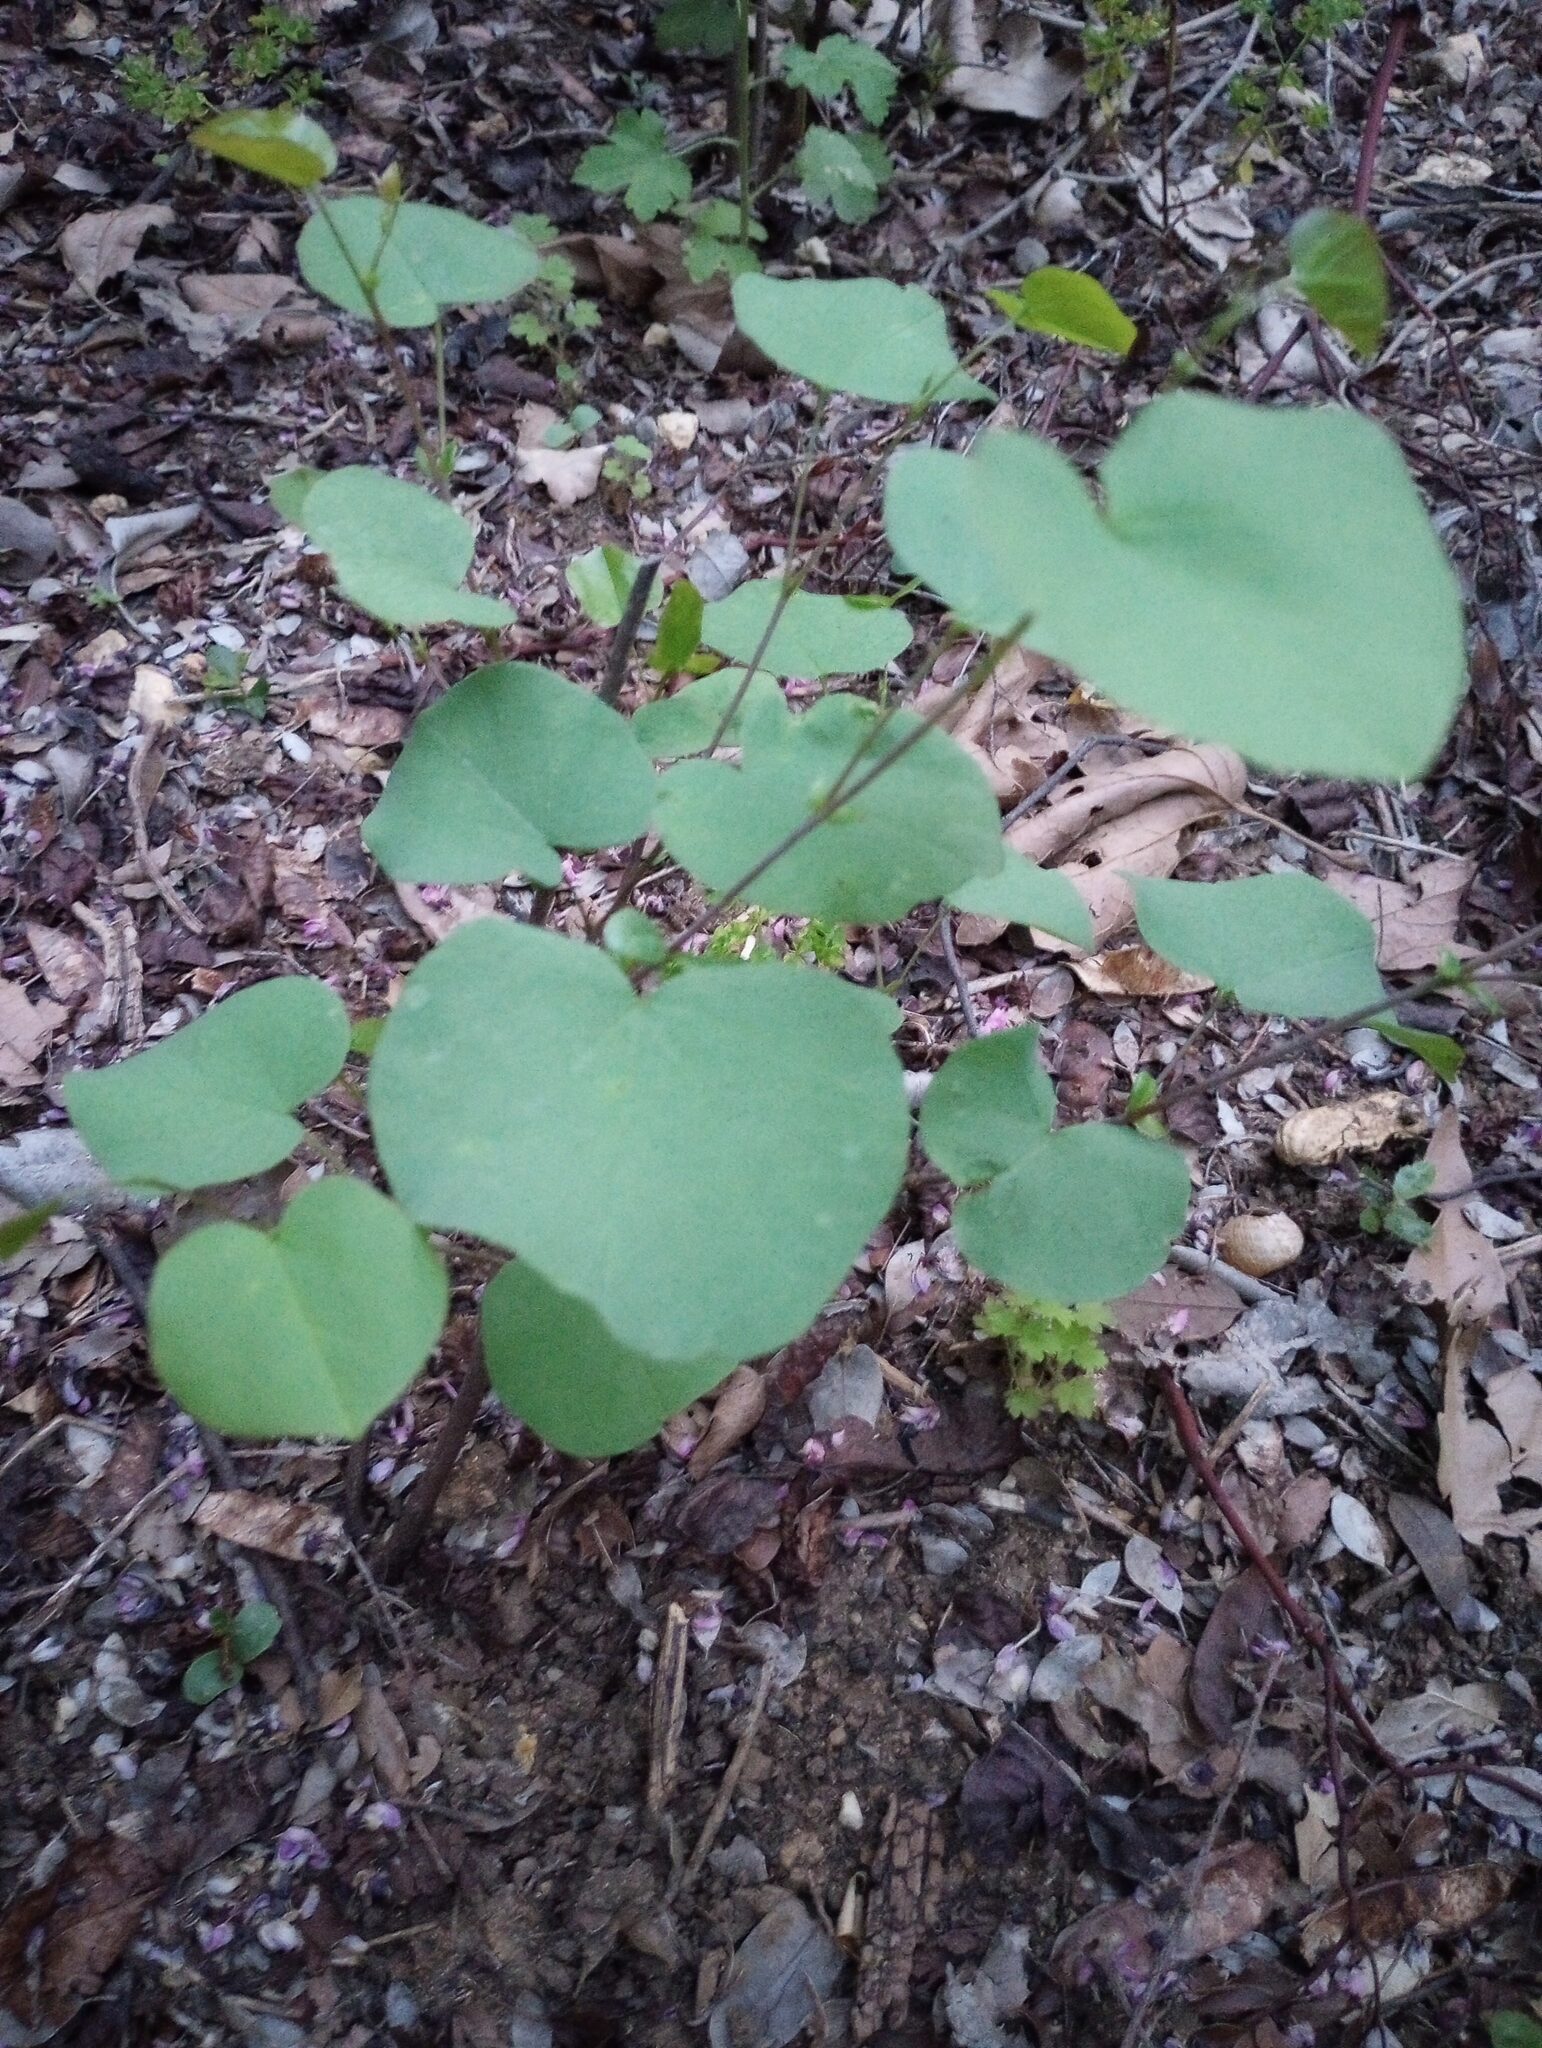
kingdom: Plantae
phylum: Tracheophyta
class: Magnoliopsida
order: Fabales
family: Fabaceae
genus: Cercis
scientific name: Cercis occidentalis
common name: California redbud
